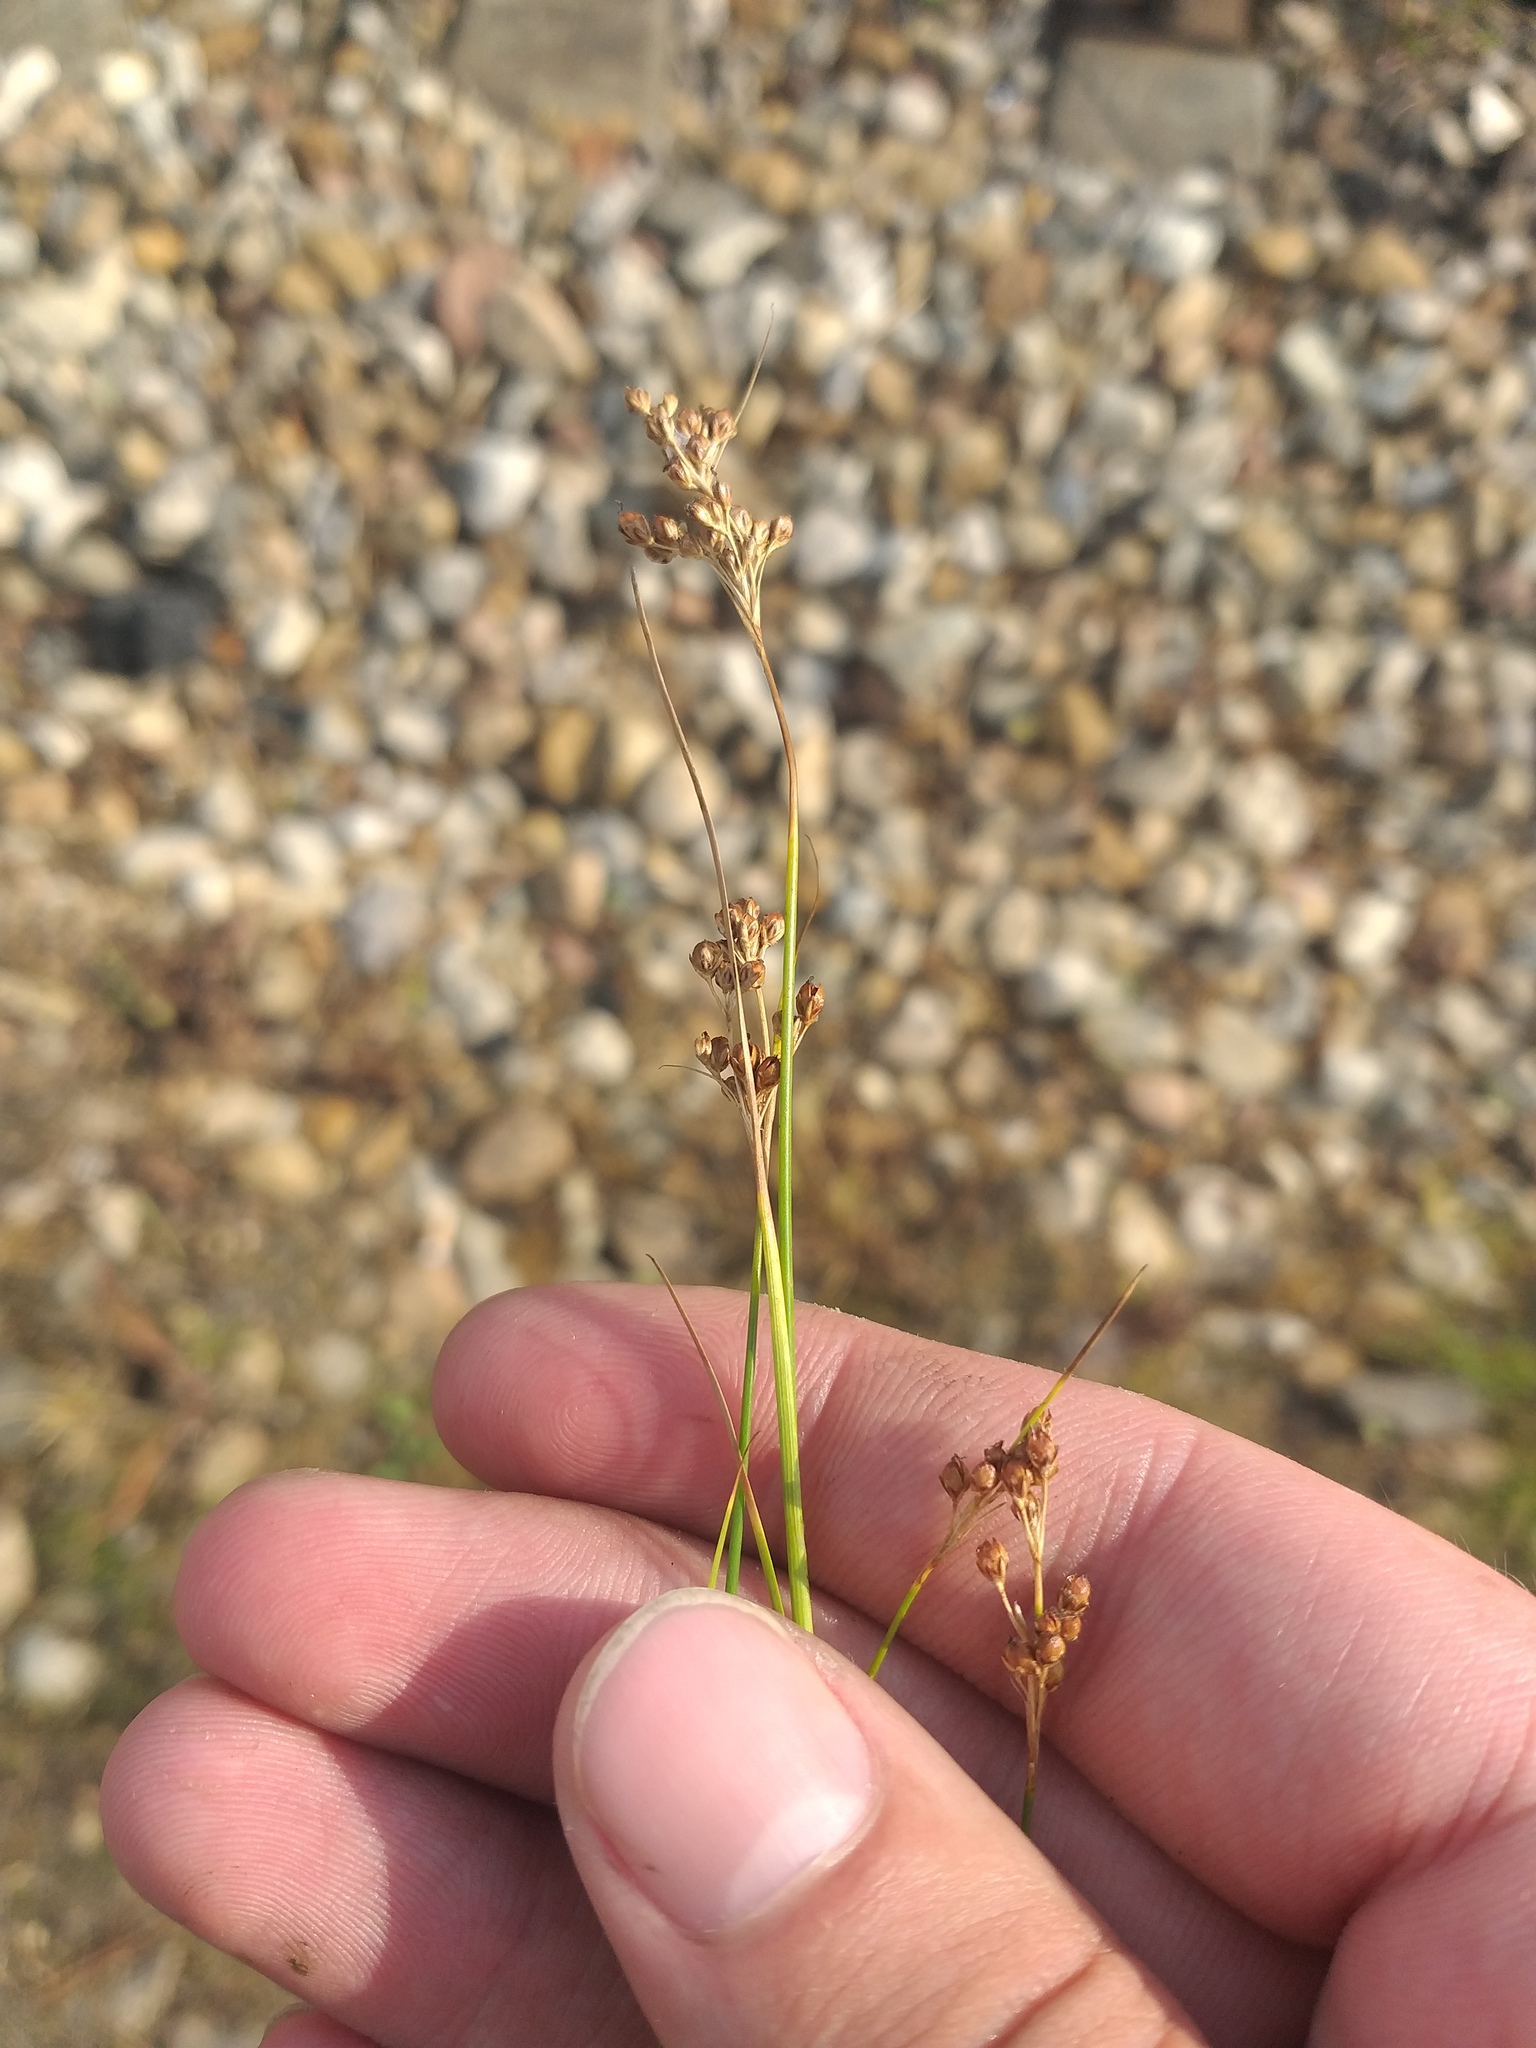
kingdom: Plantae
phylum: Tracheophyta
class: Liliopsida
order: Poales
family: Juncaceae
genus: Juncus
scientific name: Juncus compressus
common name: Round-fruited rush
